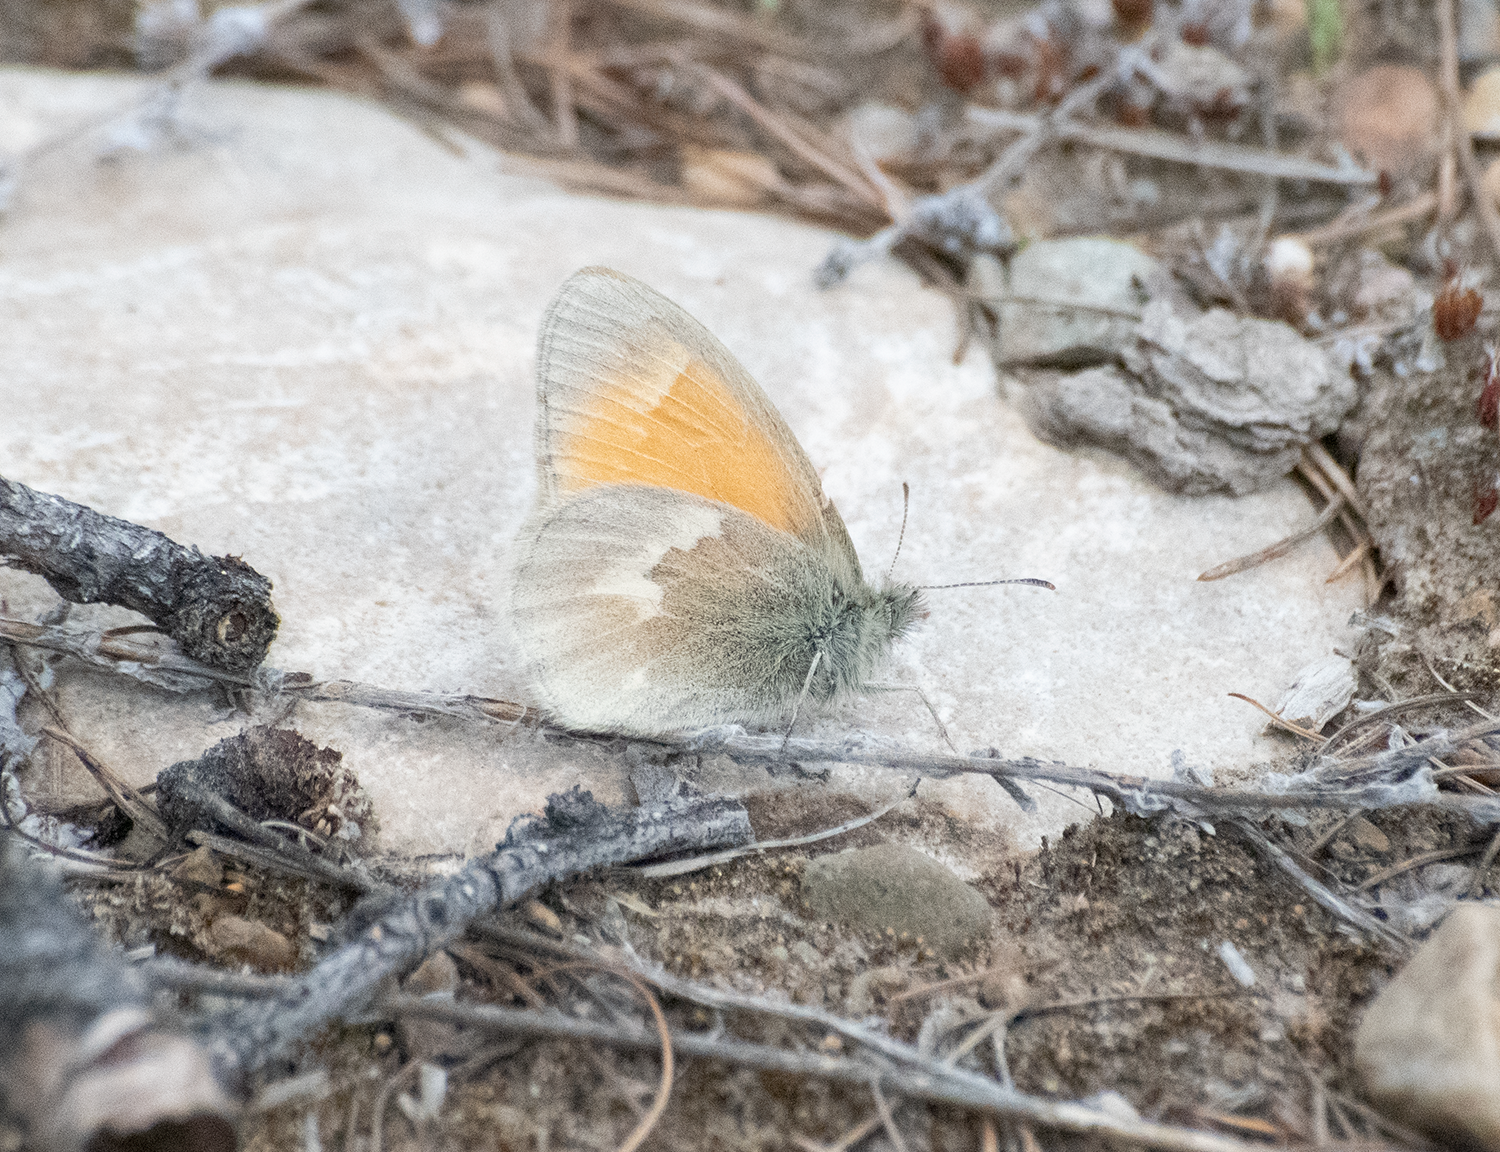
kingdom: Animalia
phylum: Arthropoda
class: Insecta
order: Lepidoptera
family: Nymphalidae
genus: Coenonympha
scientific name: Coenonympha california
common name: Common ringlet
